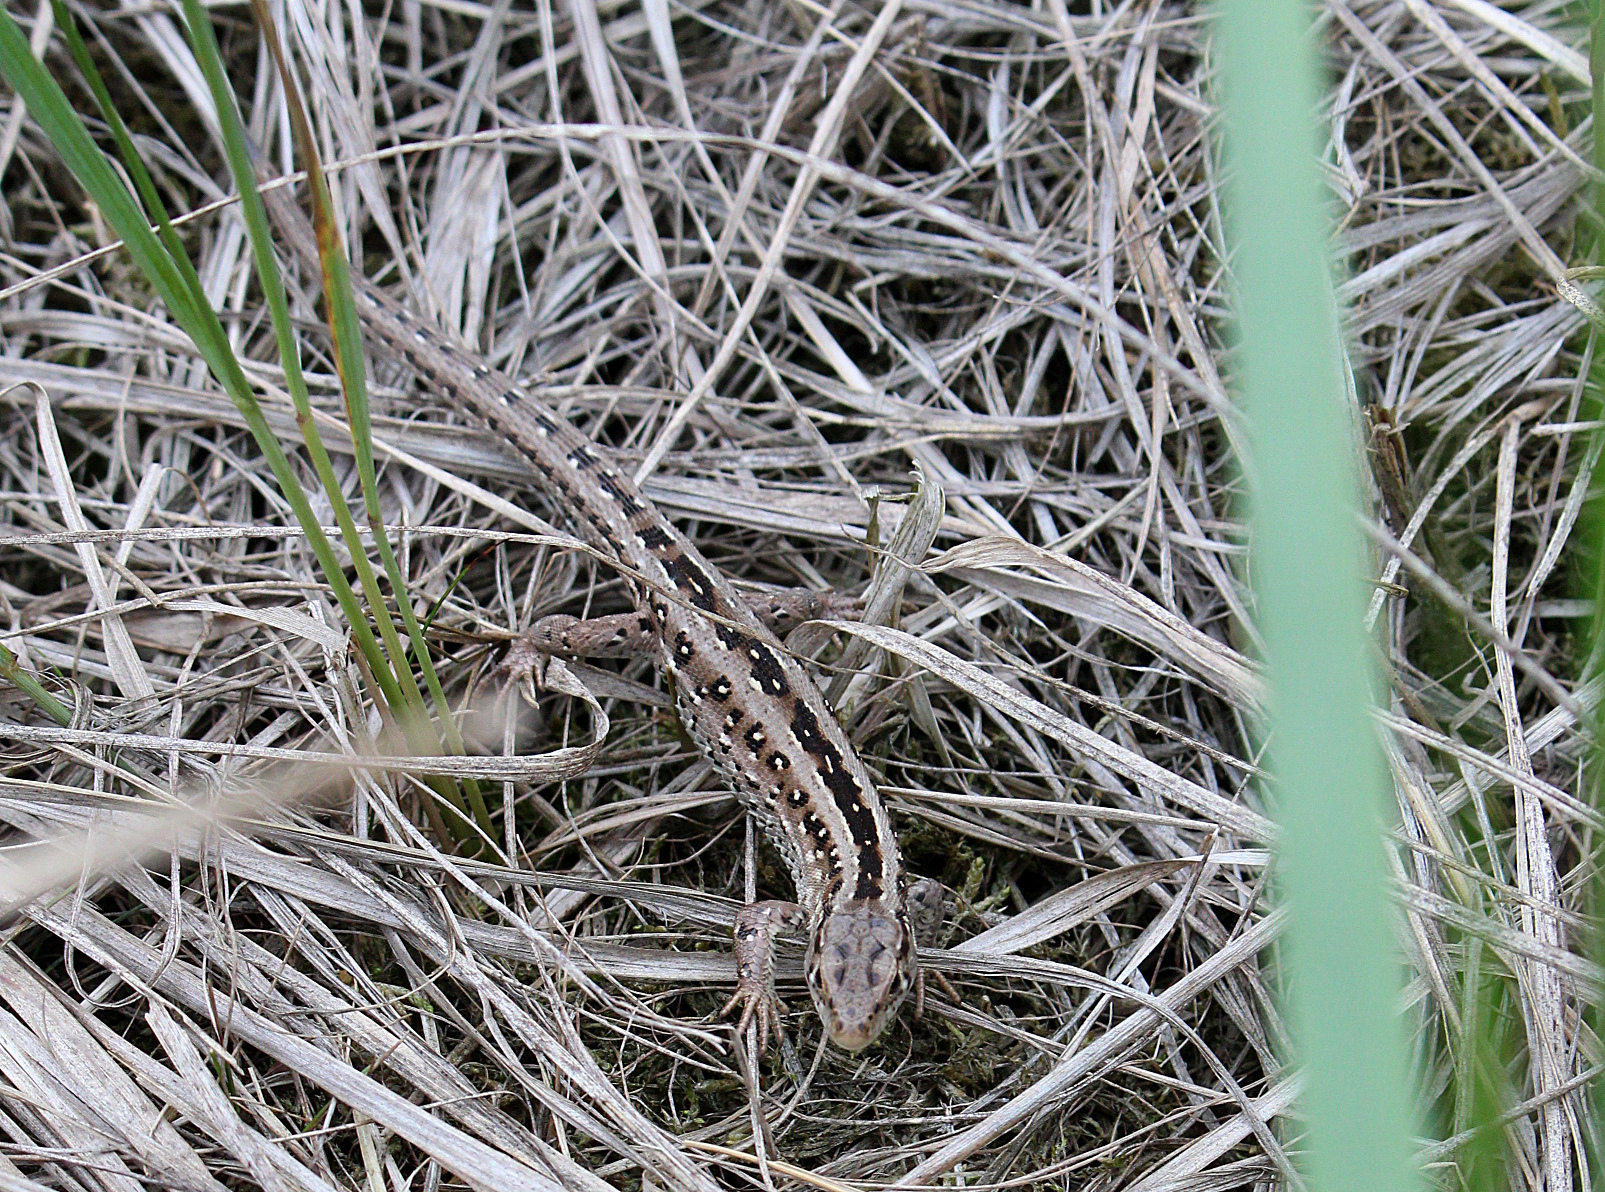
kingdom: Animalia
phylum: Chordata
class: Squamata
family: Lacertidae
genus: Lacerta
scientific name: Lacerta agilis
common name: Sand lizard
